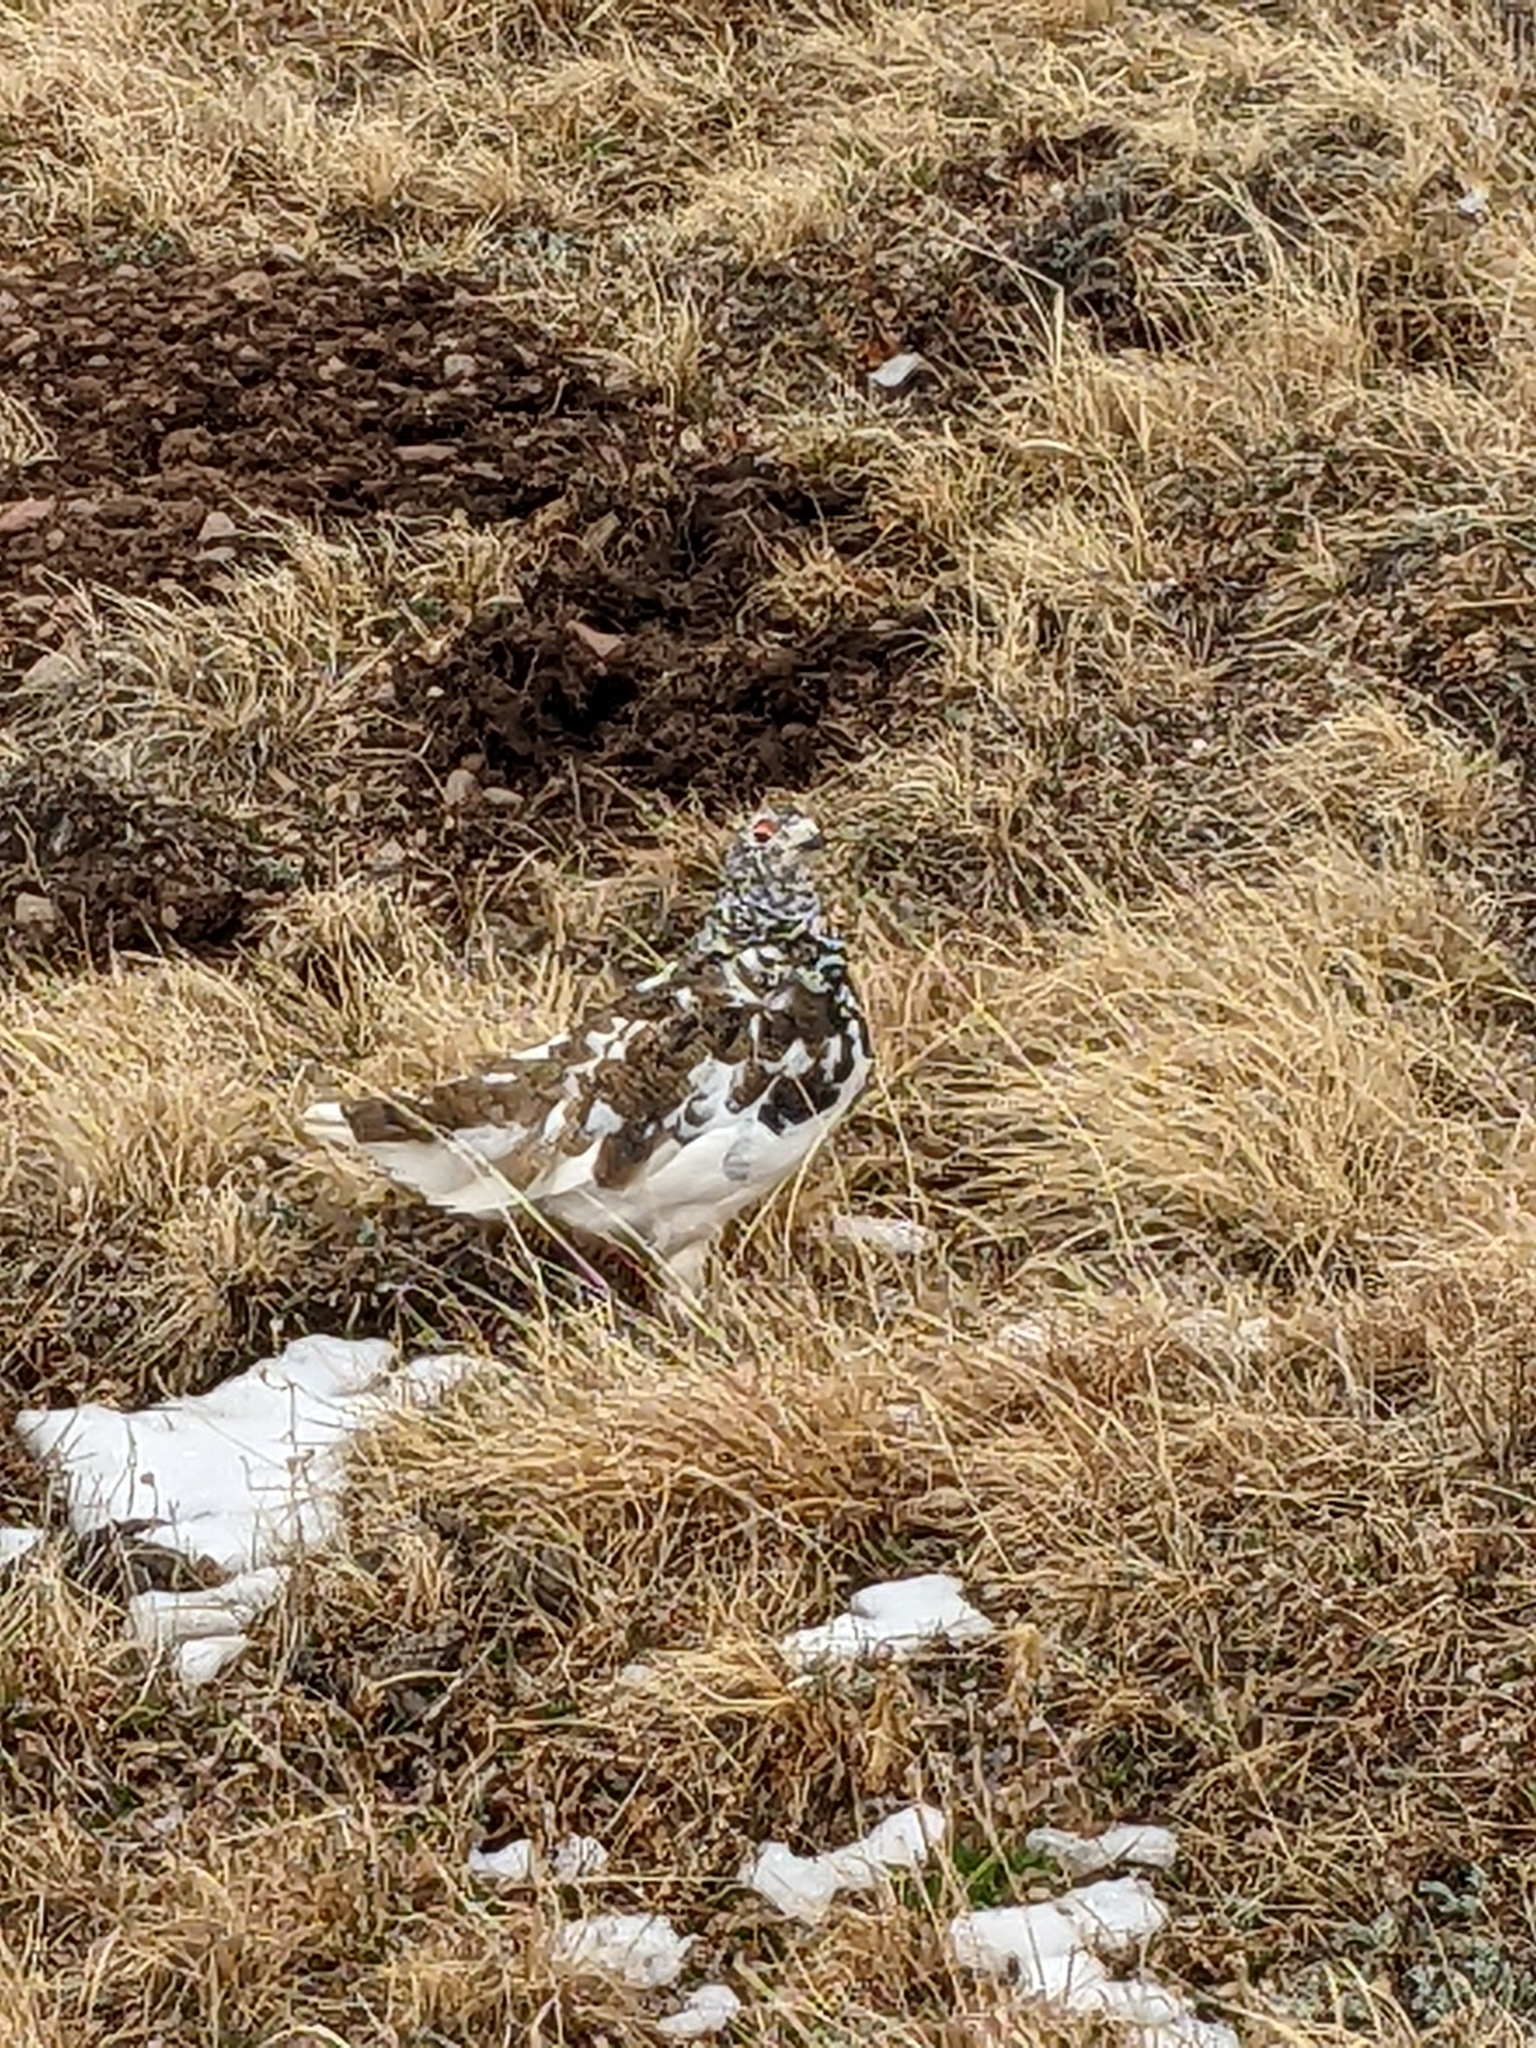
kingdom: Animalia
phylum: Chordata
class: Aves
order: Galliformes
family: Phasianidae
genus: Lagopus
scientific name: Lagopus leucura
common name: White-tailed ptarmigan
